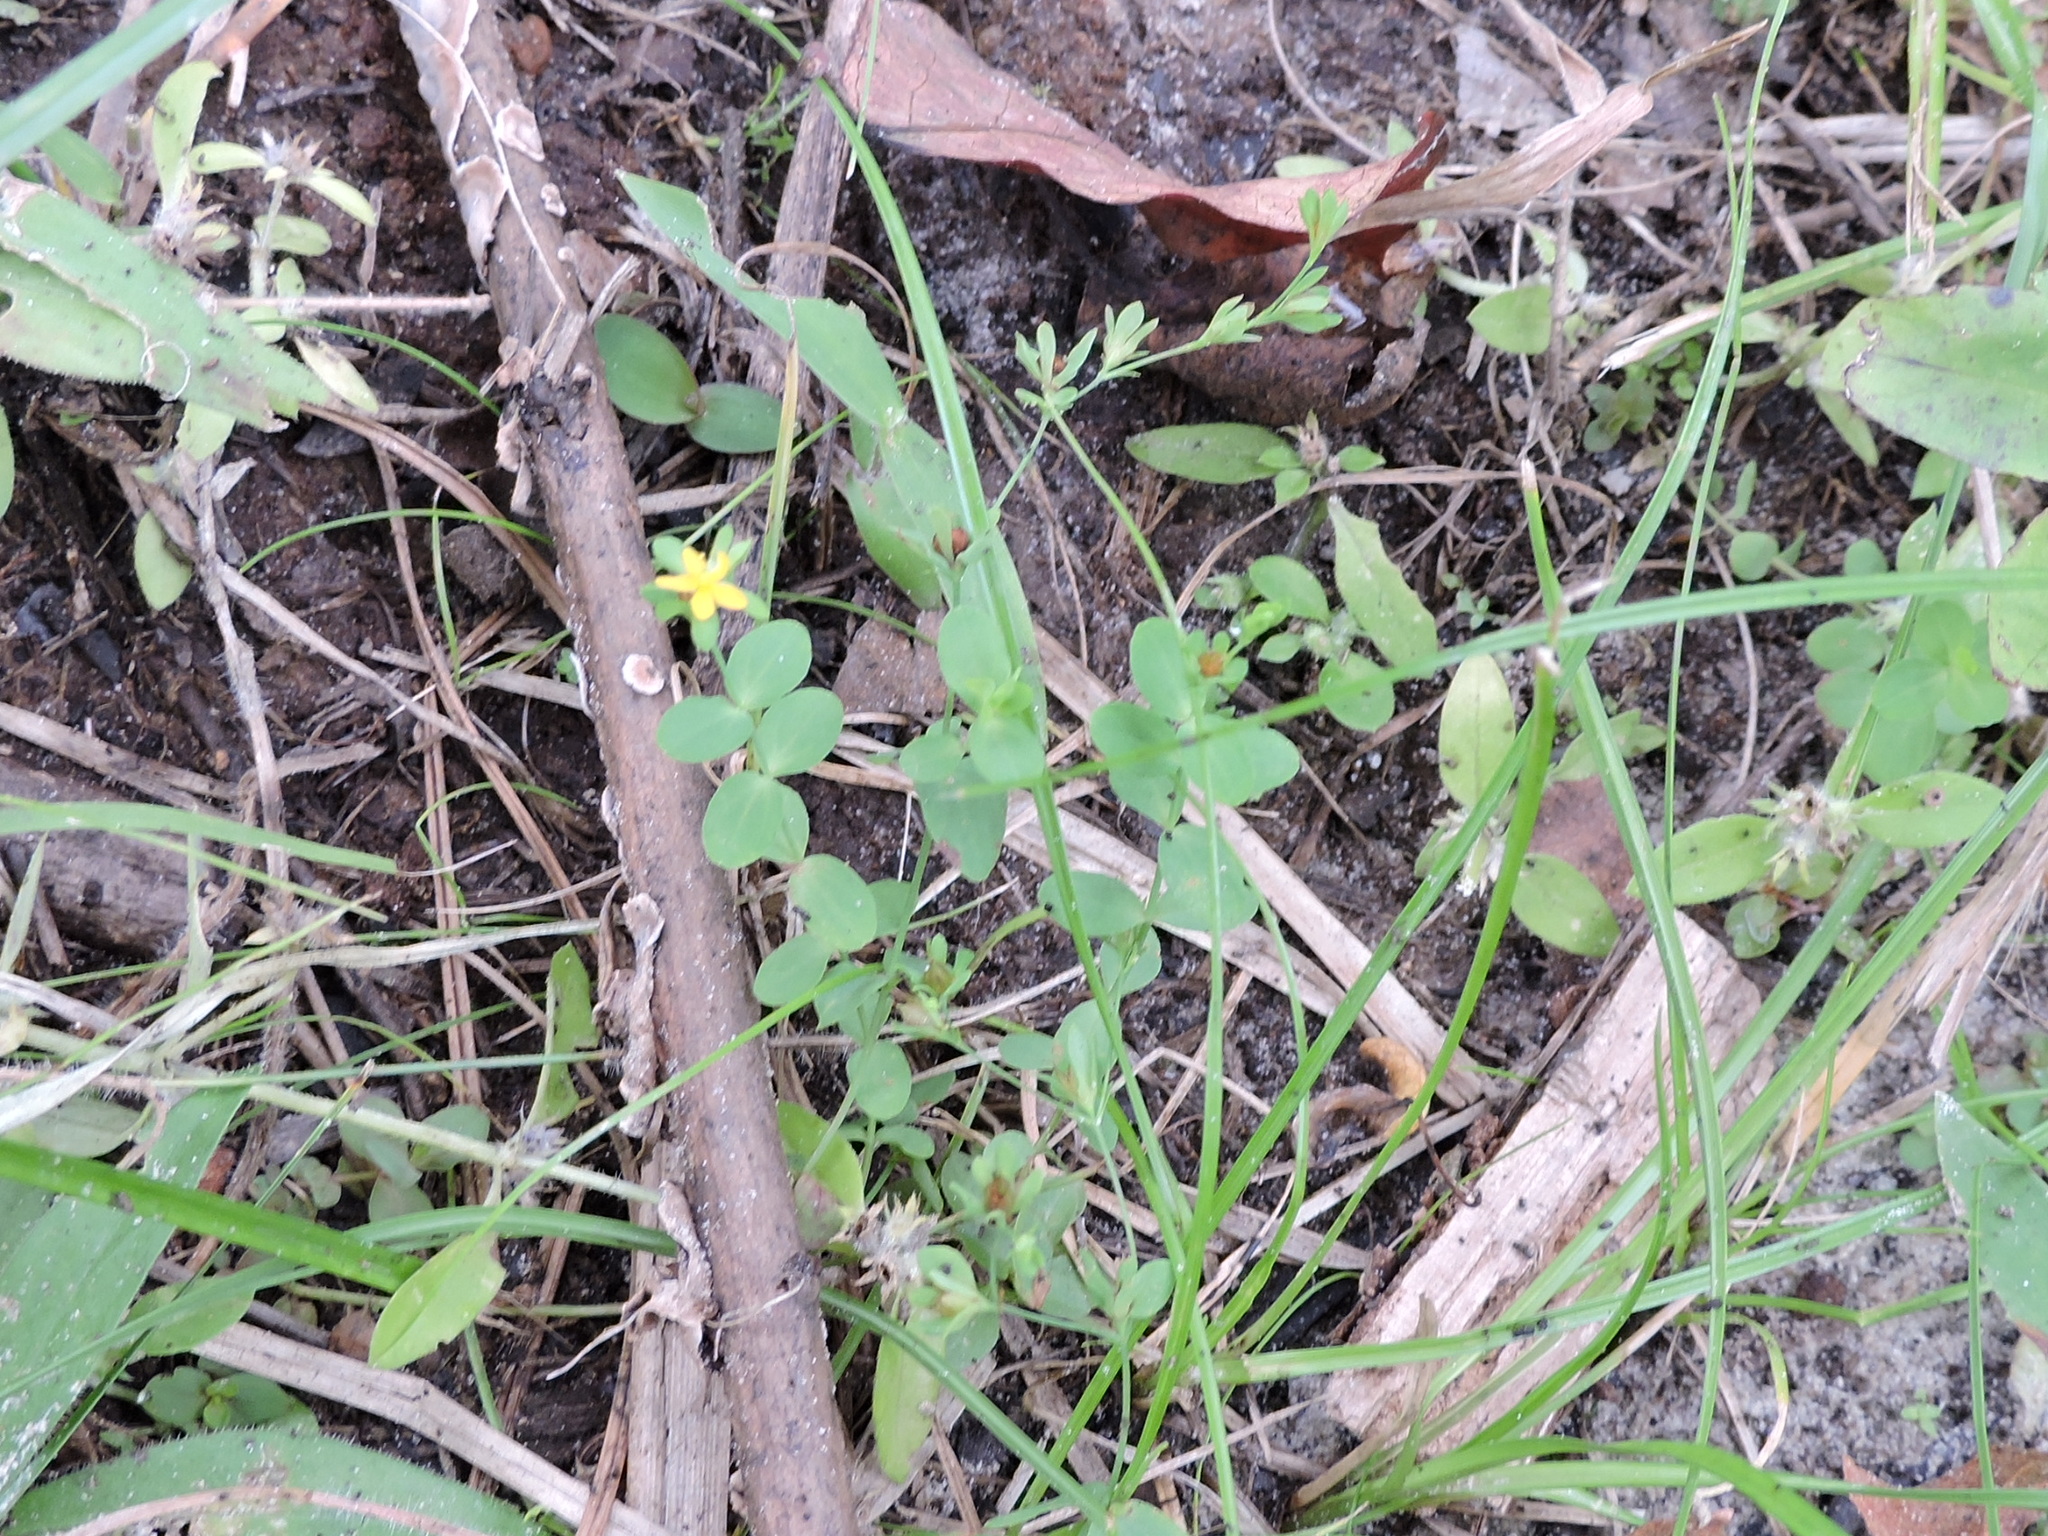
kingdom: Plantae
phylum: Tracheophyta
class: Magnoliopsida
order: Malpighiales
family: Hypericaceae
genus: Hypericum
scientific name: Hypericum mutilum
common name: Dwarf st. john's-wort
